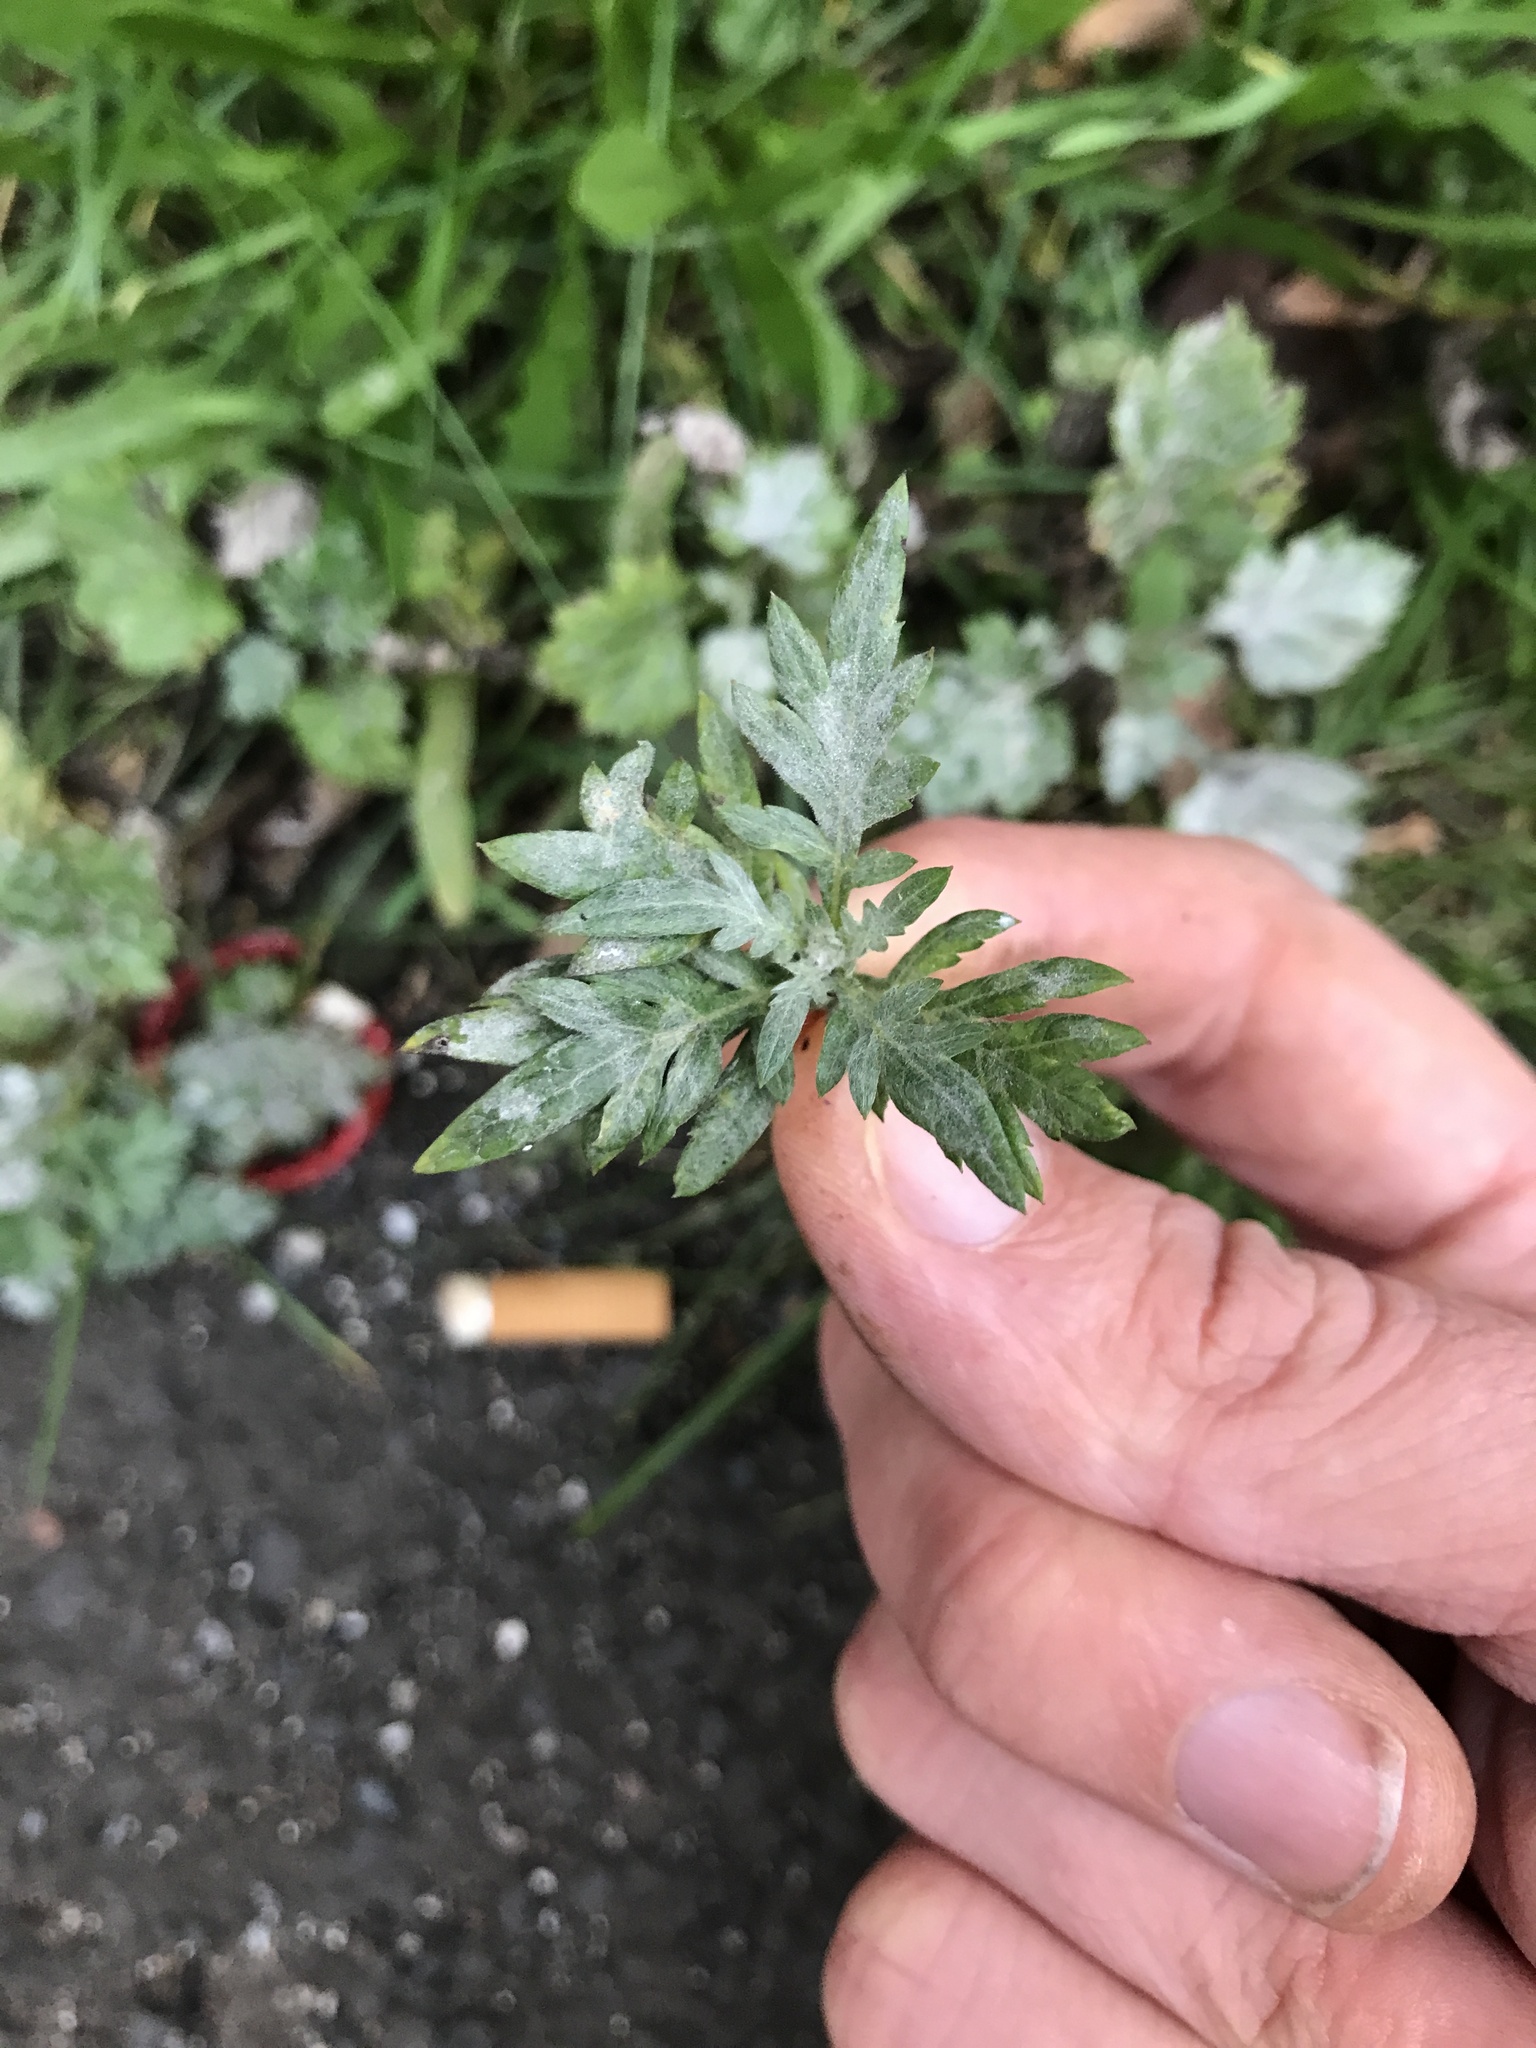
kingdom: Fungi
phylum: Ascomycota
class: Leotiomycetes
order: Helotiales
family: Erysiphaceae
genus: Golovinomyces
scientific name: Golovinomyces artemisiae
